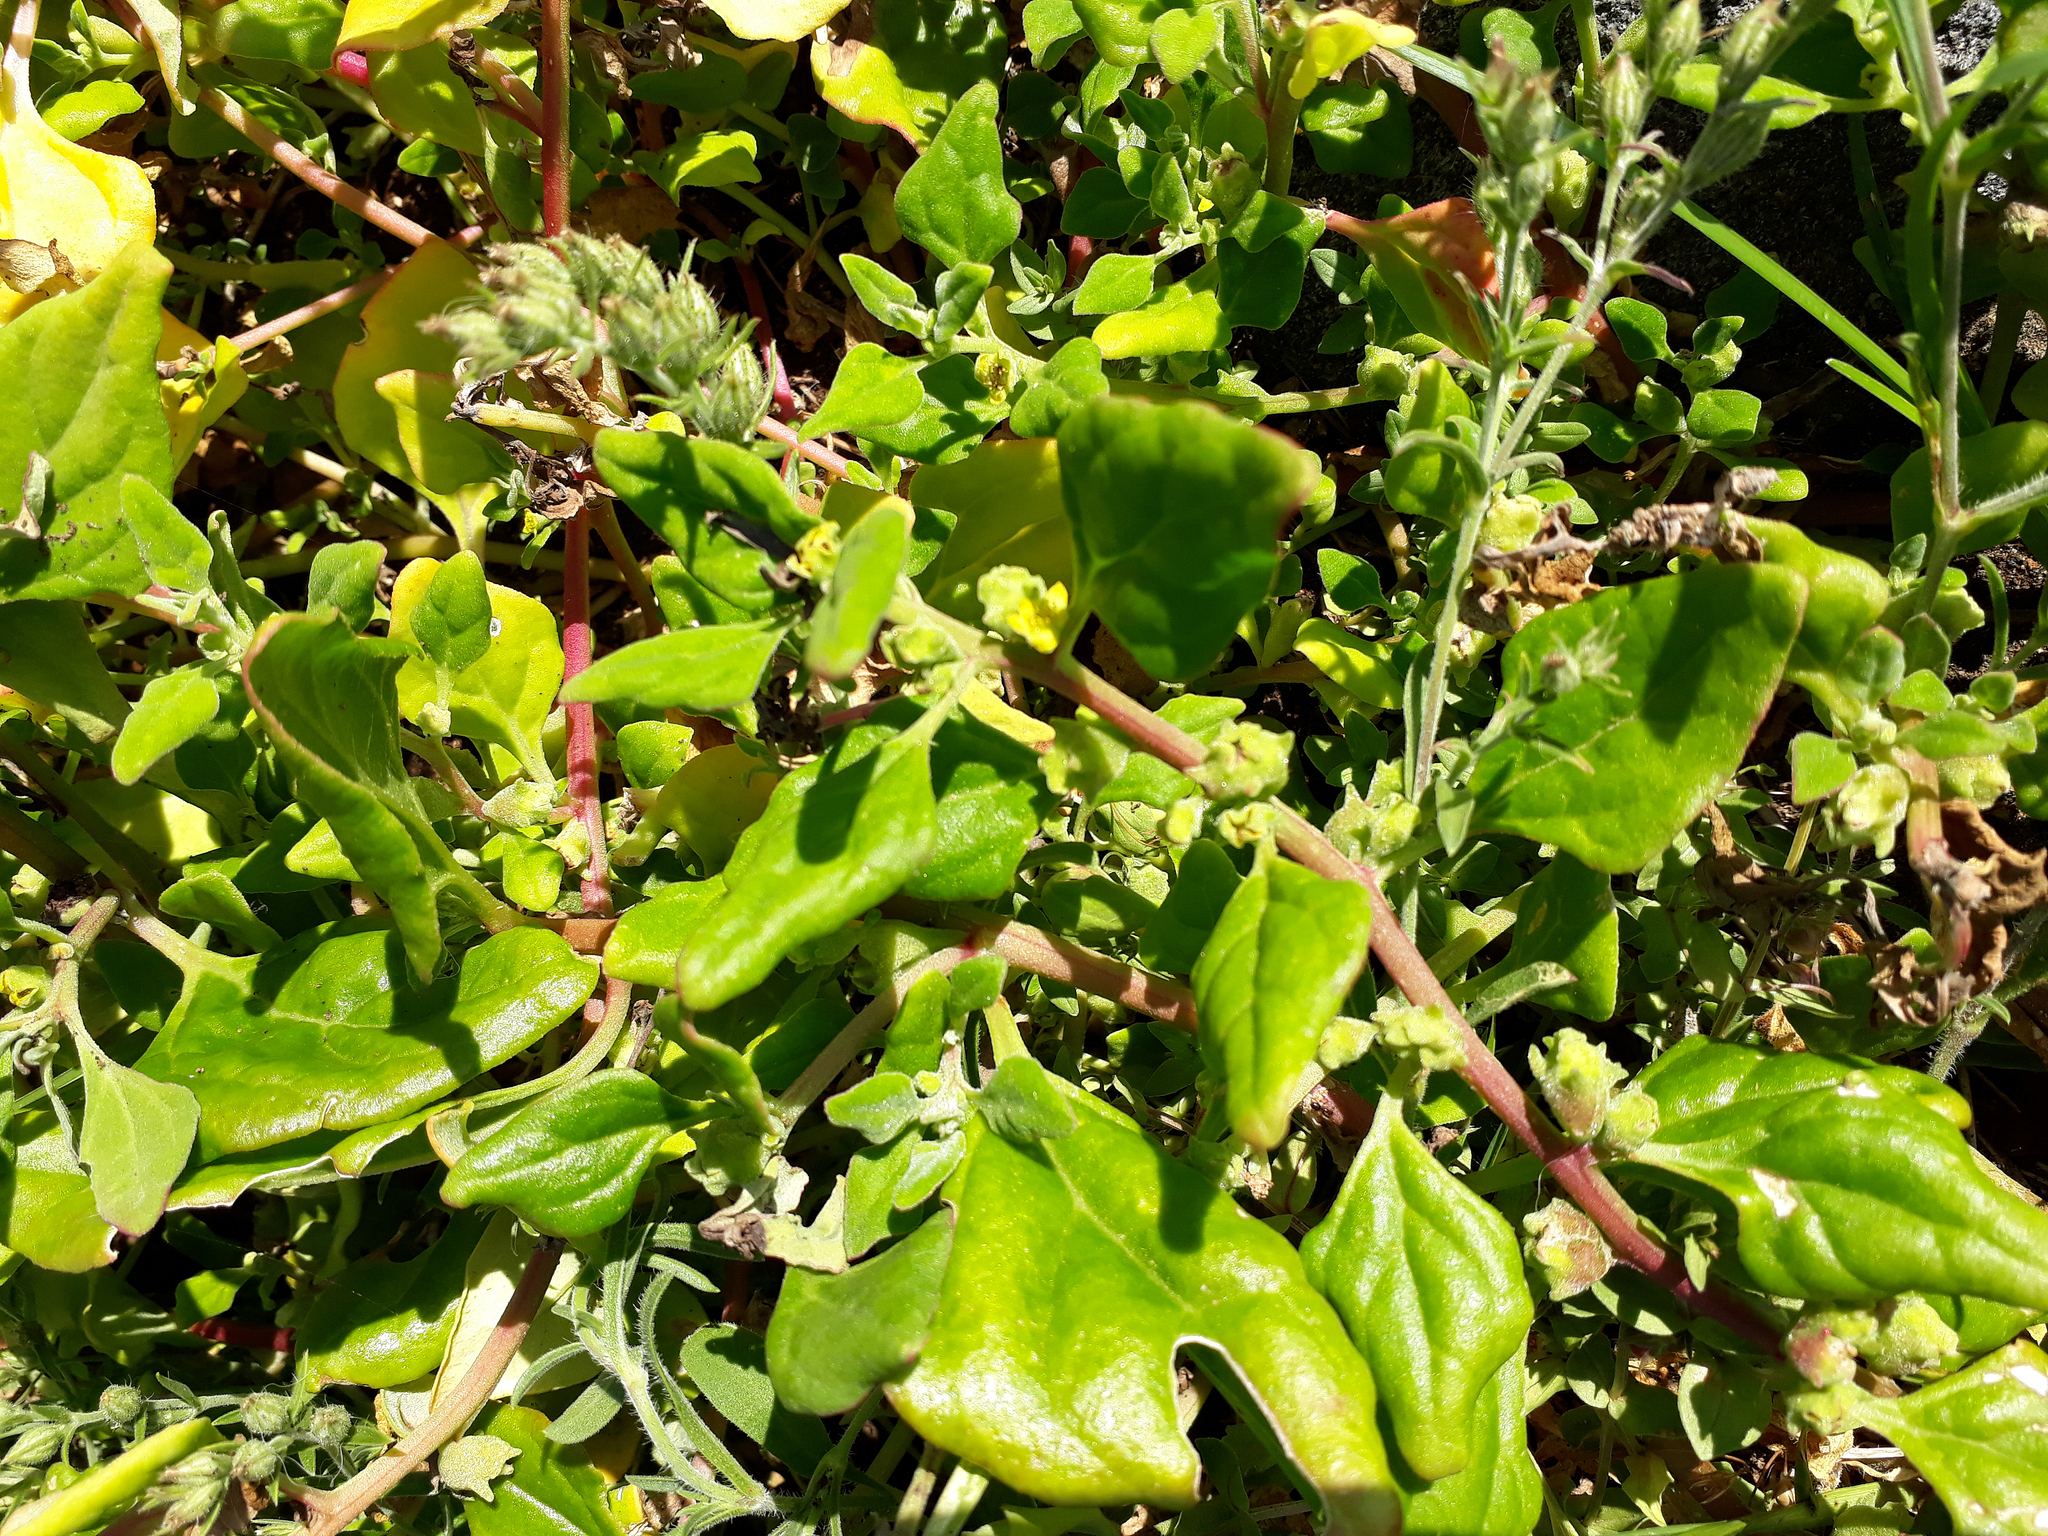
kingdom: Plantae
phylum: Tracheophyta
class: Magnoliopsida
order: Caryophyllales
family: Aizoaceae
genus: Tetragonia
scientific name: Tetragonia tetragonoides
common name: New zealand-spinach
